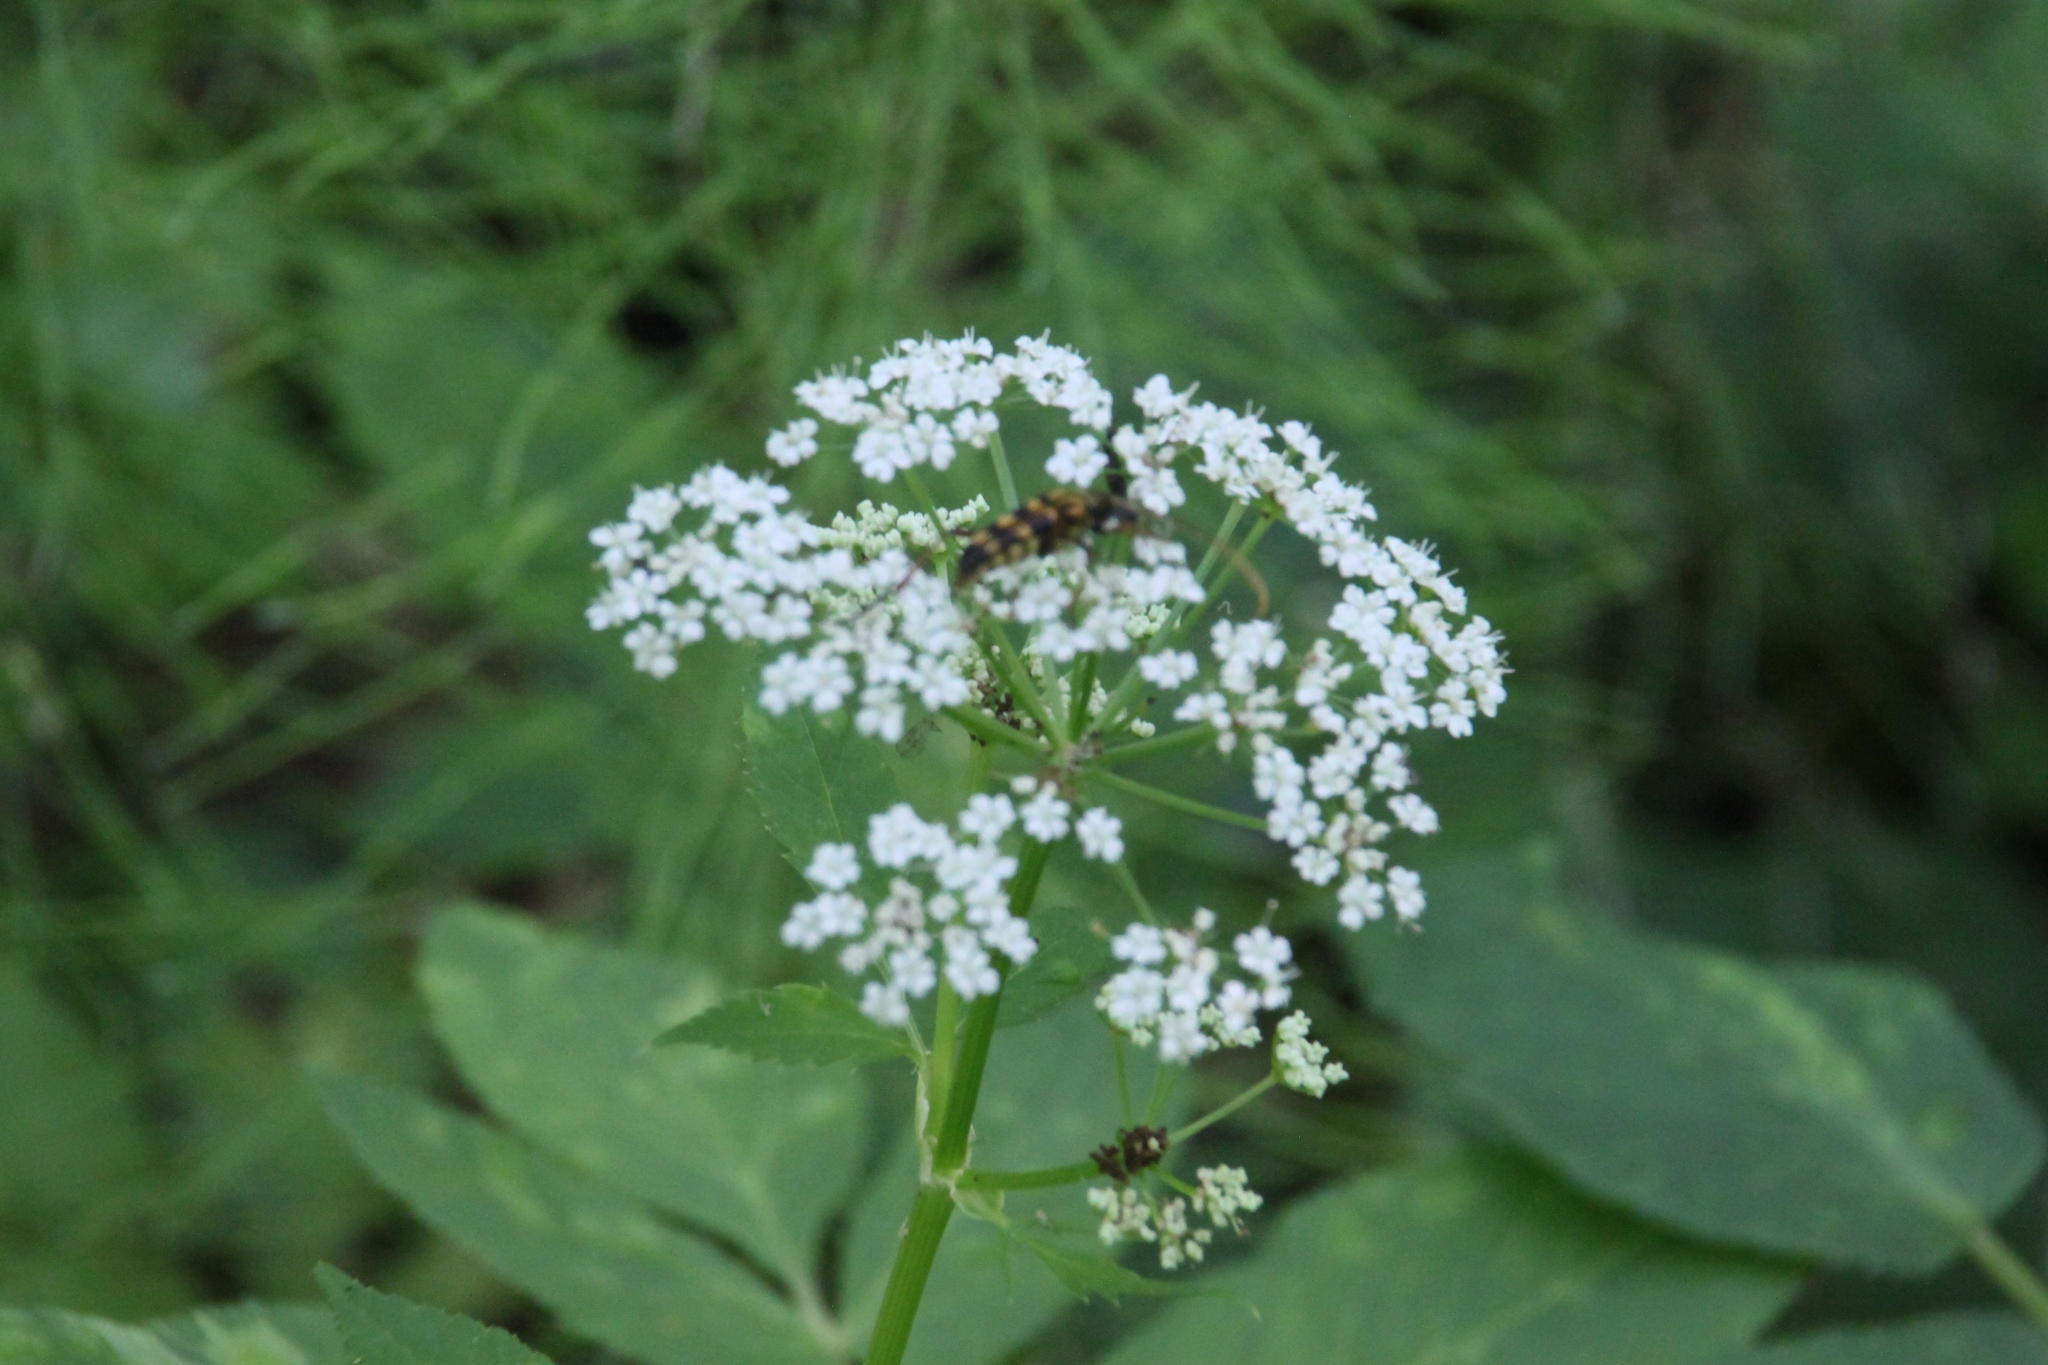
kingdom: Animalia
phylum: Arthropoda
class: Insecta
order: Coleoptera
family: Cerambycidae
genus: Leptura
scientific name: Leptura annularis
